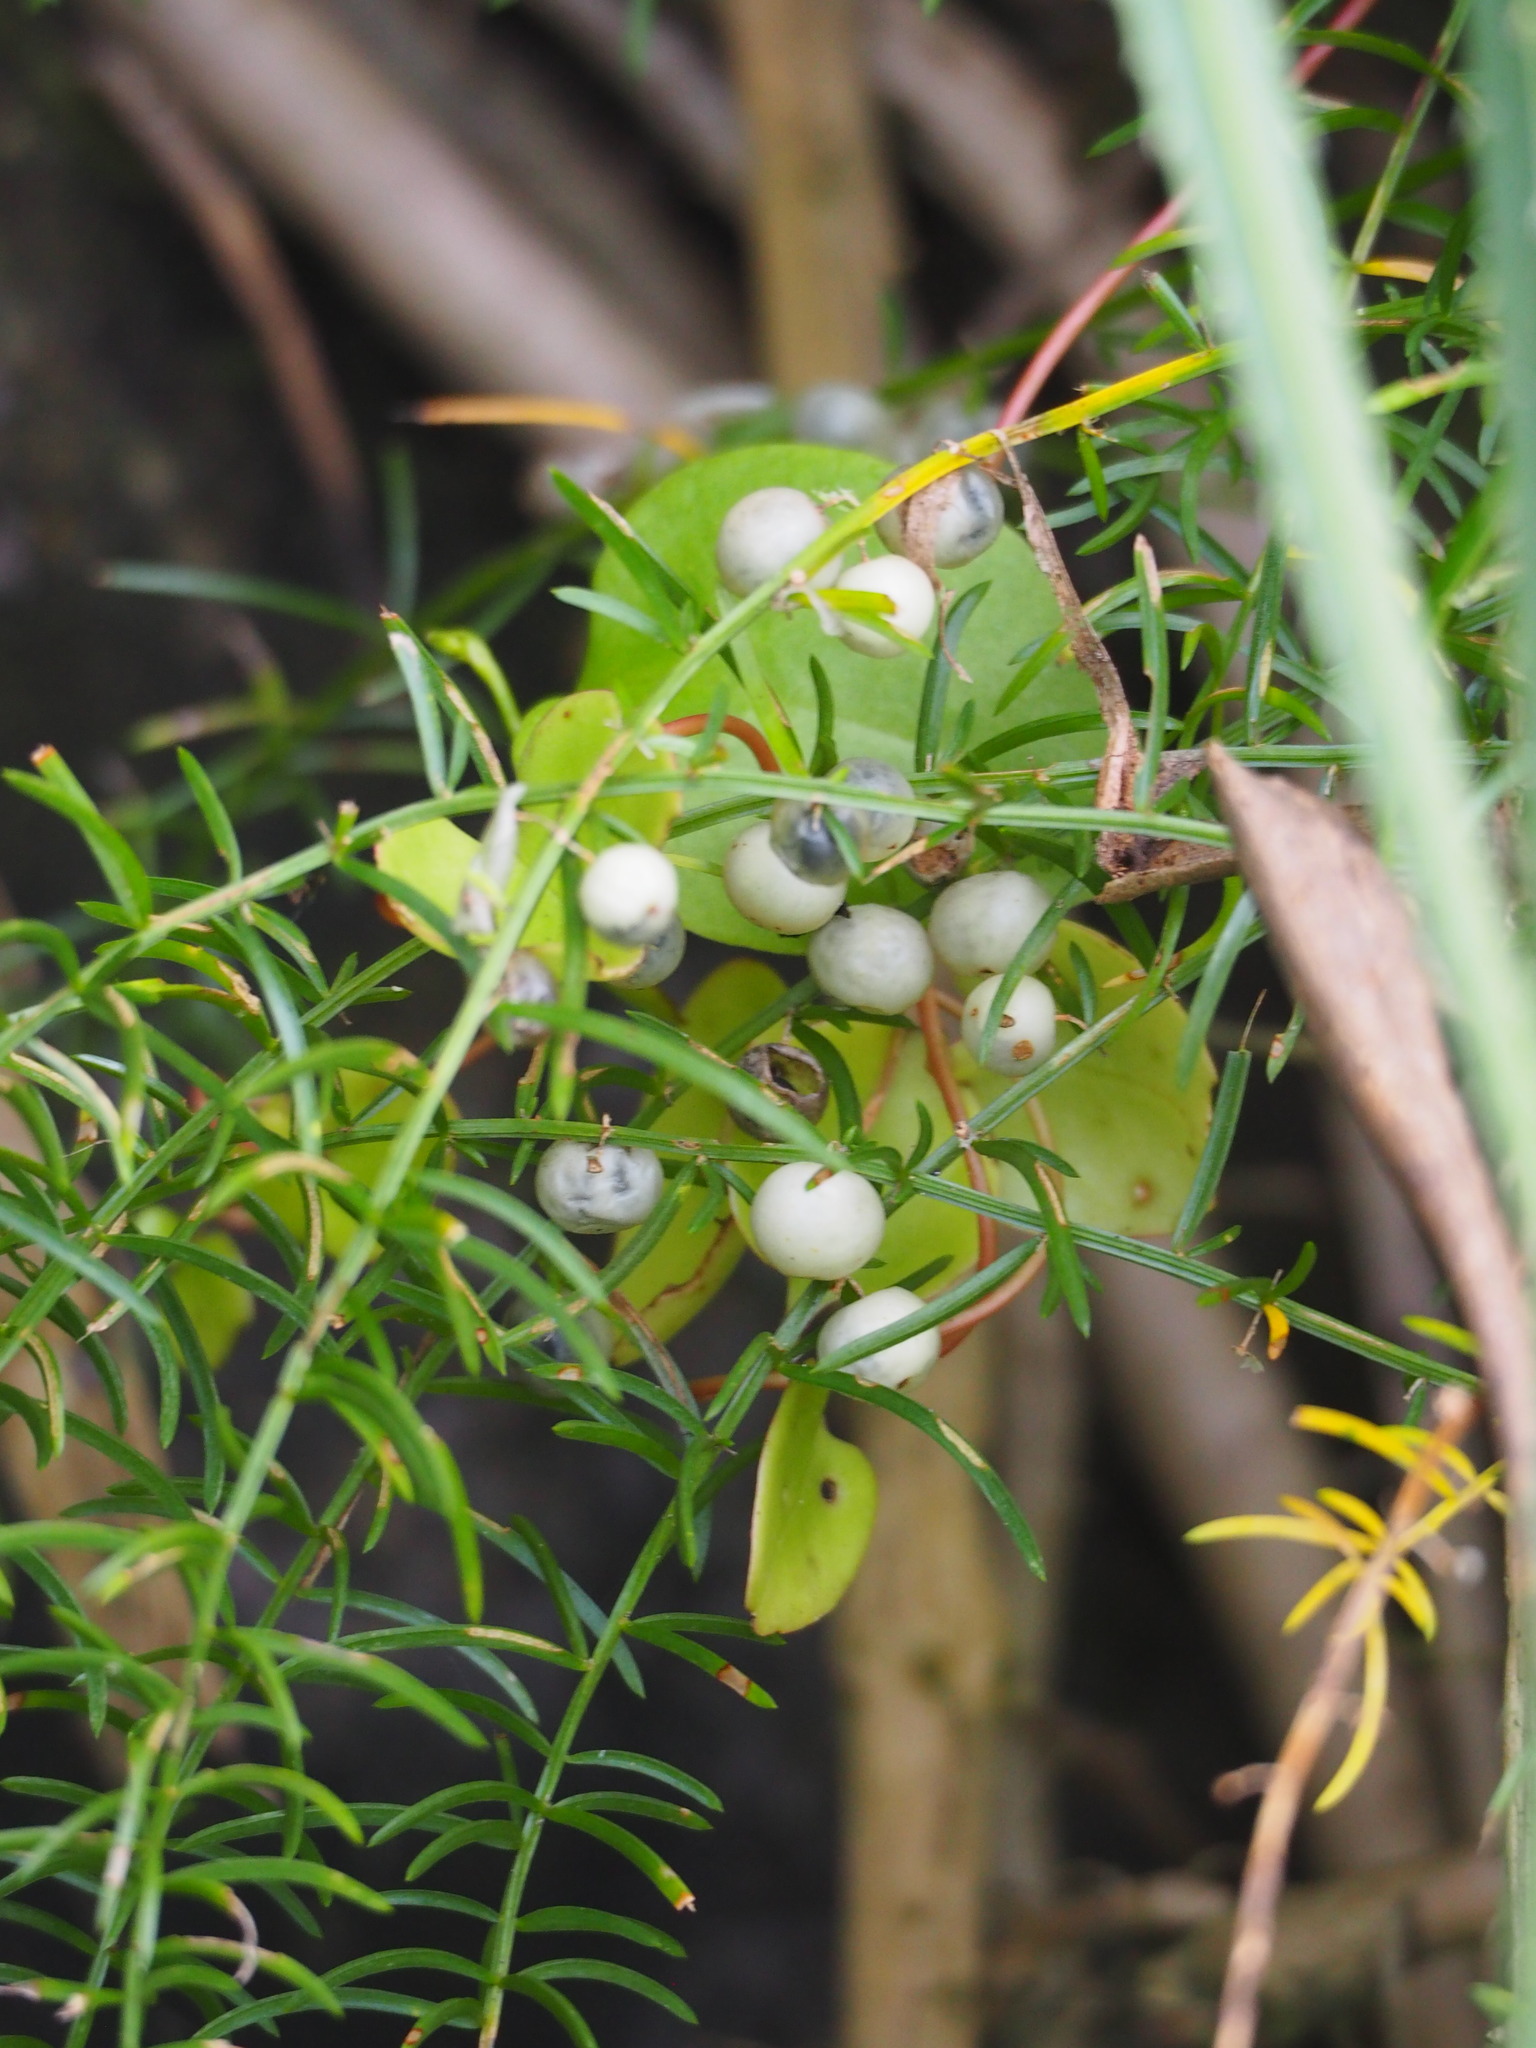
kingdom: Plantae
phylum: Tracheophyta
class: Liliopsida
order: Asparagales
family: Asparagaceae
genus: Asparagus
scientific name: Asparagus cochinchinensis
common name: Chinese asparagus
